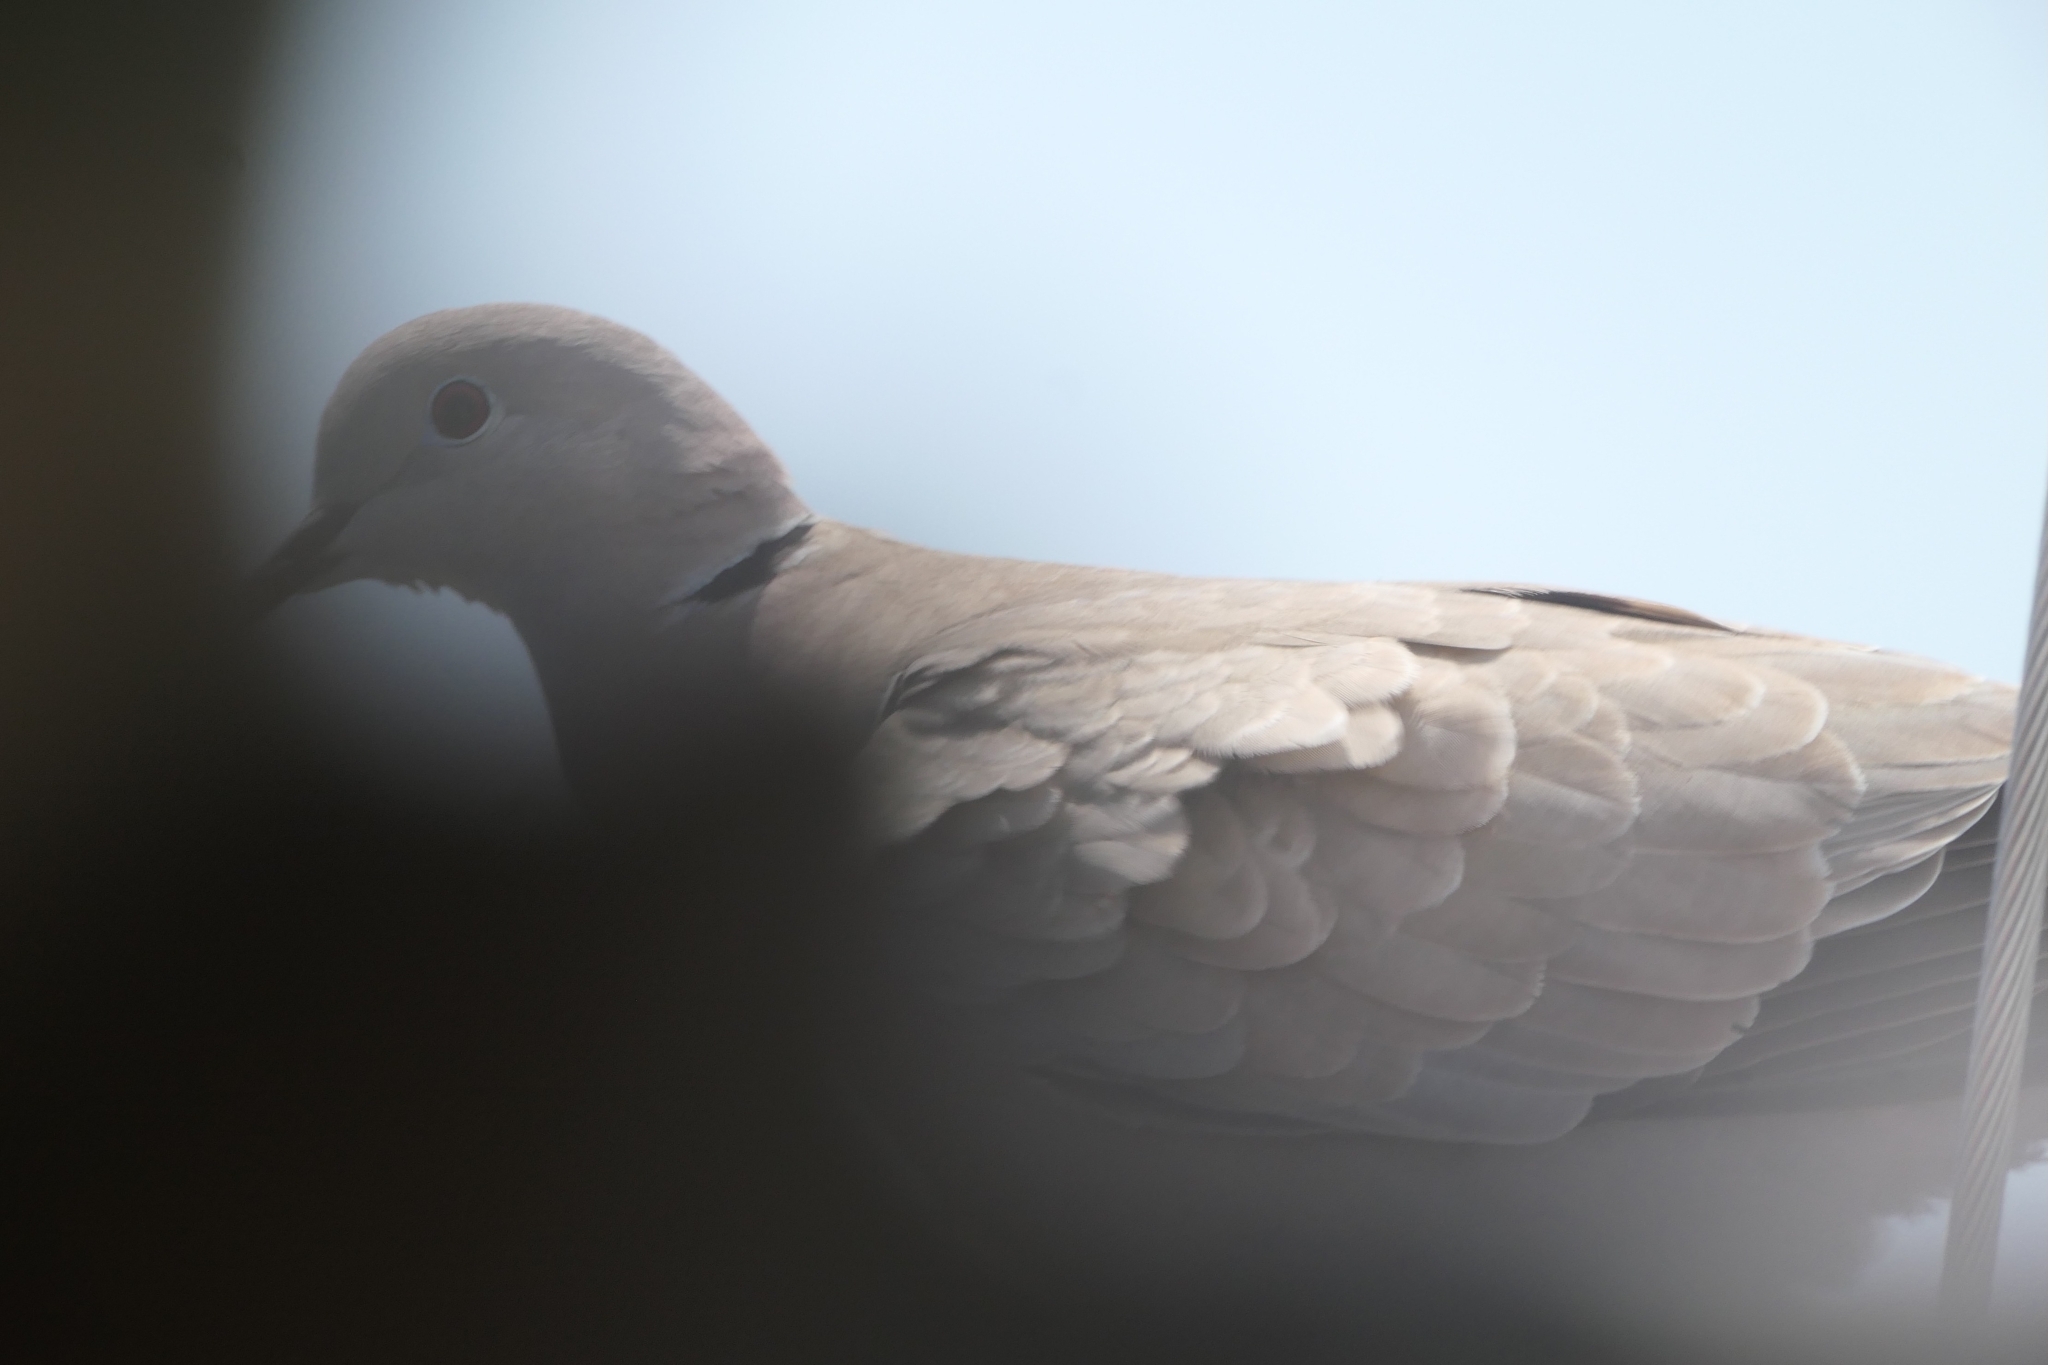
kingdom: Animalia
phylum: Chordata
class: Aves
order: Columbiformes
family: Columbidae
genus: Streptopelia
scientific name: Streptopelia decaocto
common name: Eurasian collared dove
